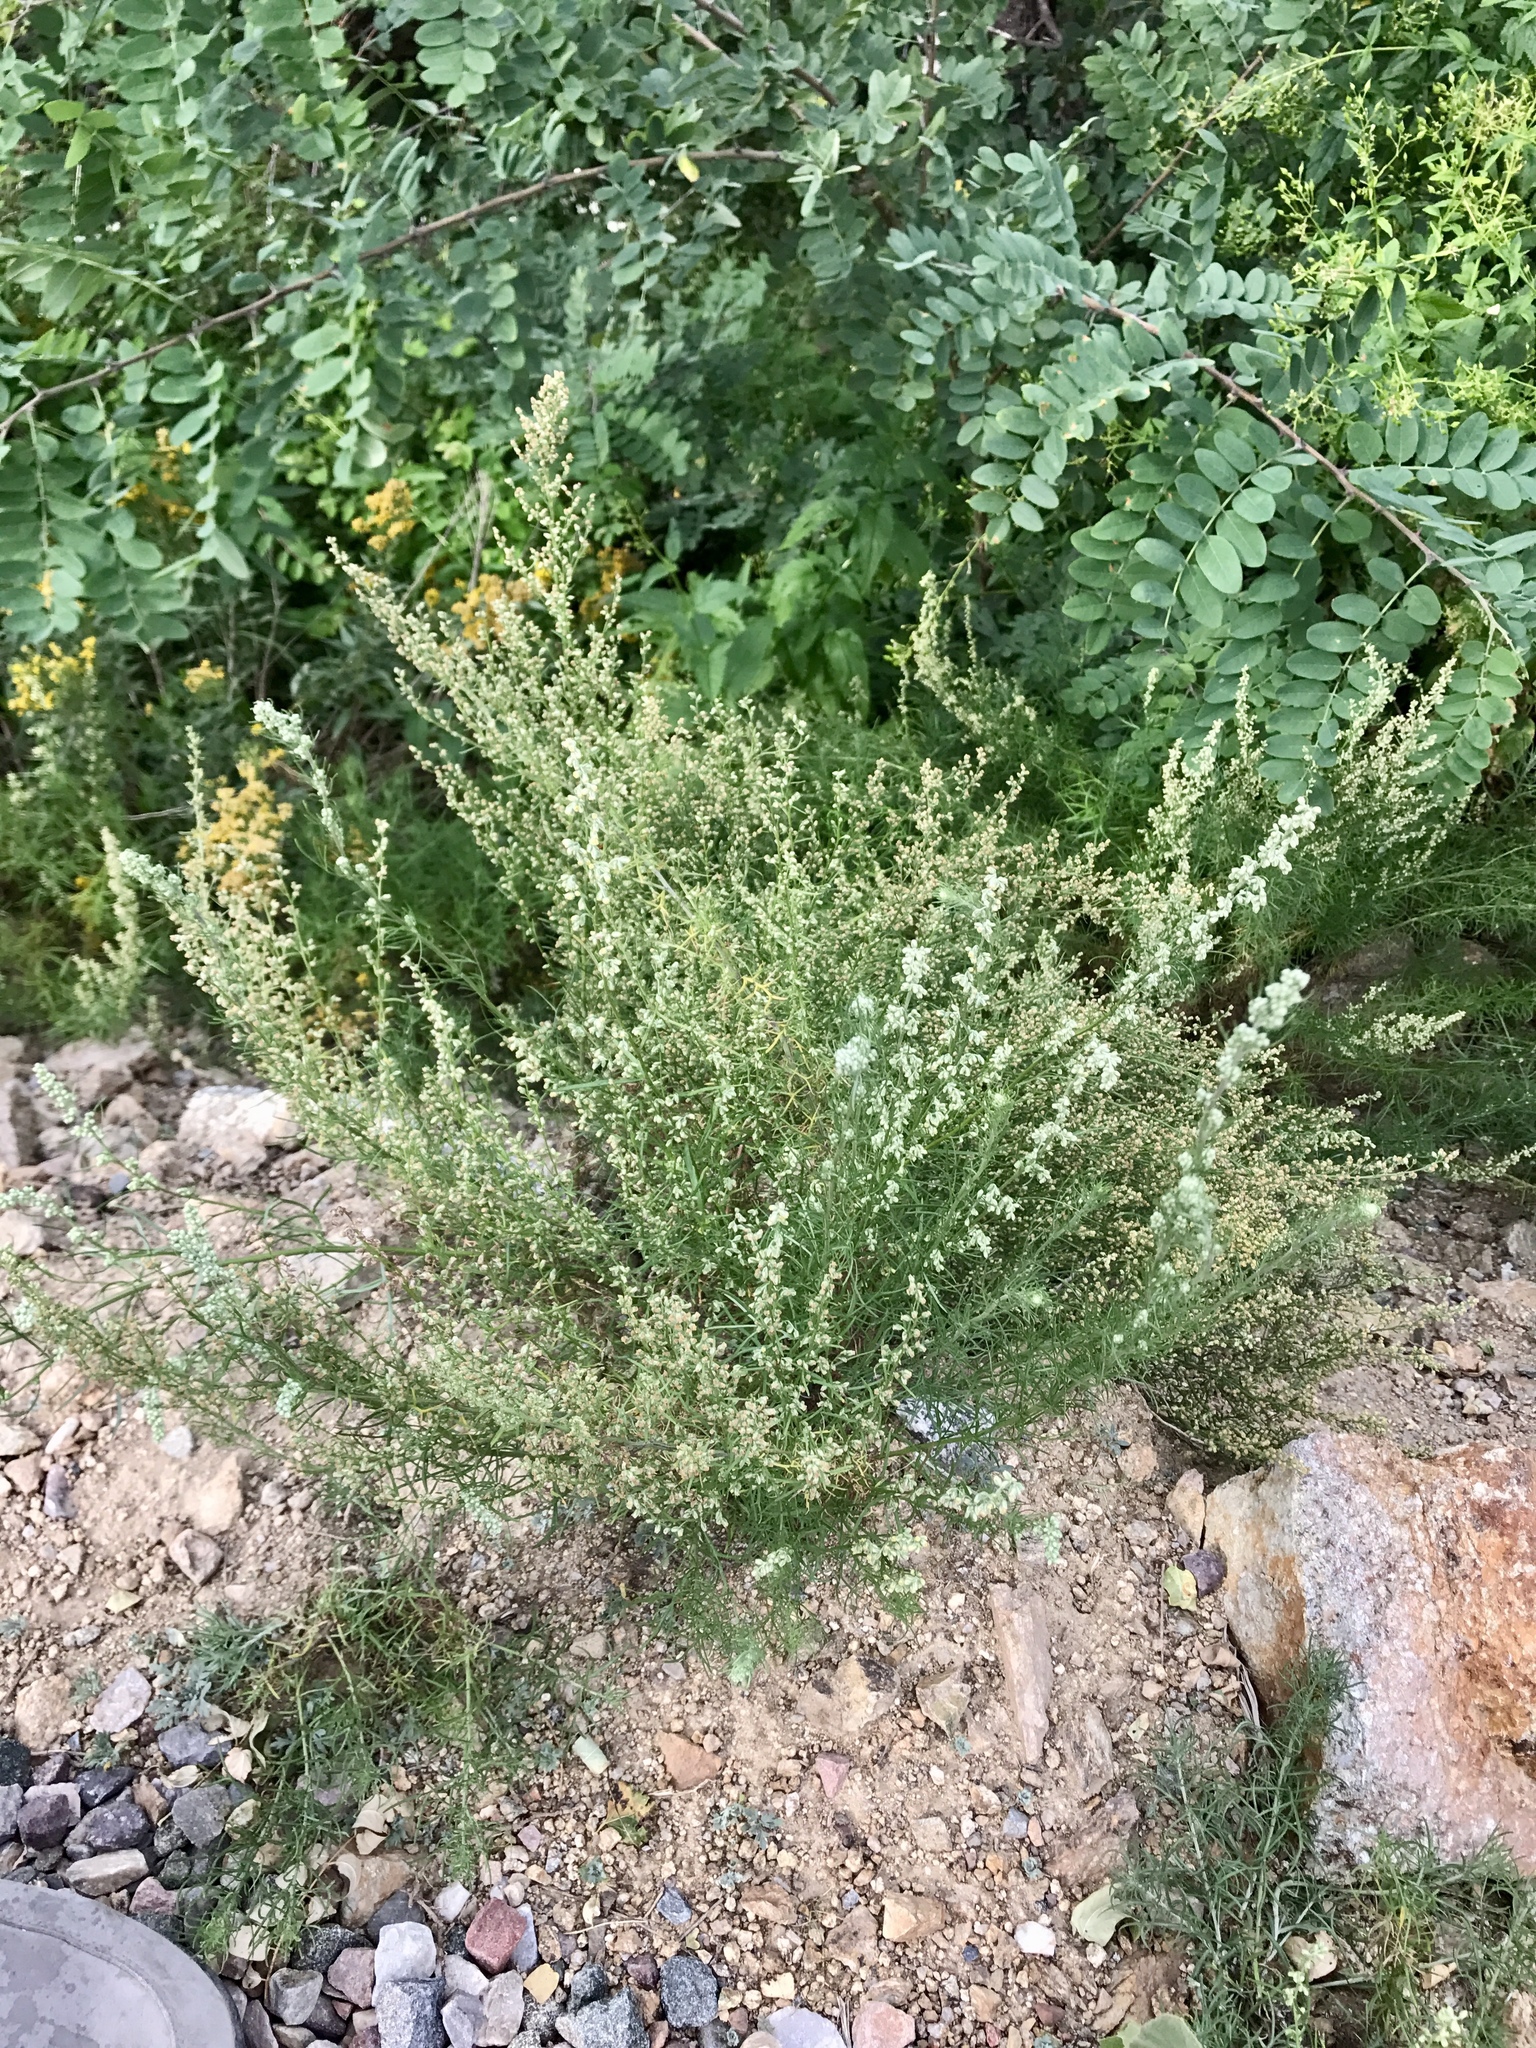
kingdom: Plantae
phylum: Tracheophyta
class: Magnoliopsida
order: Asterales
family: Asteraceae
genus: Artemisia
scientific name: Artemisia dracunculus
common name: Tarragon
